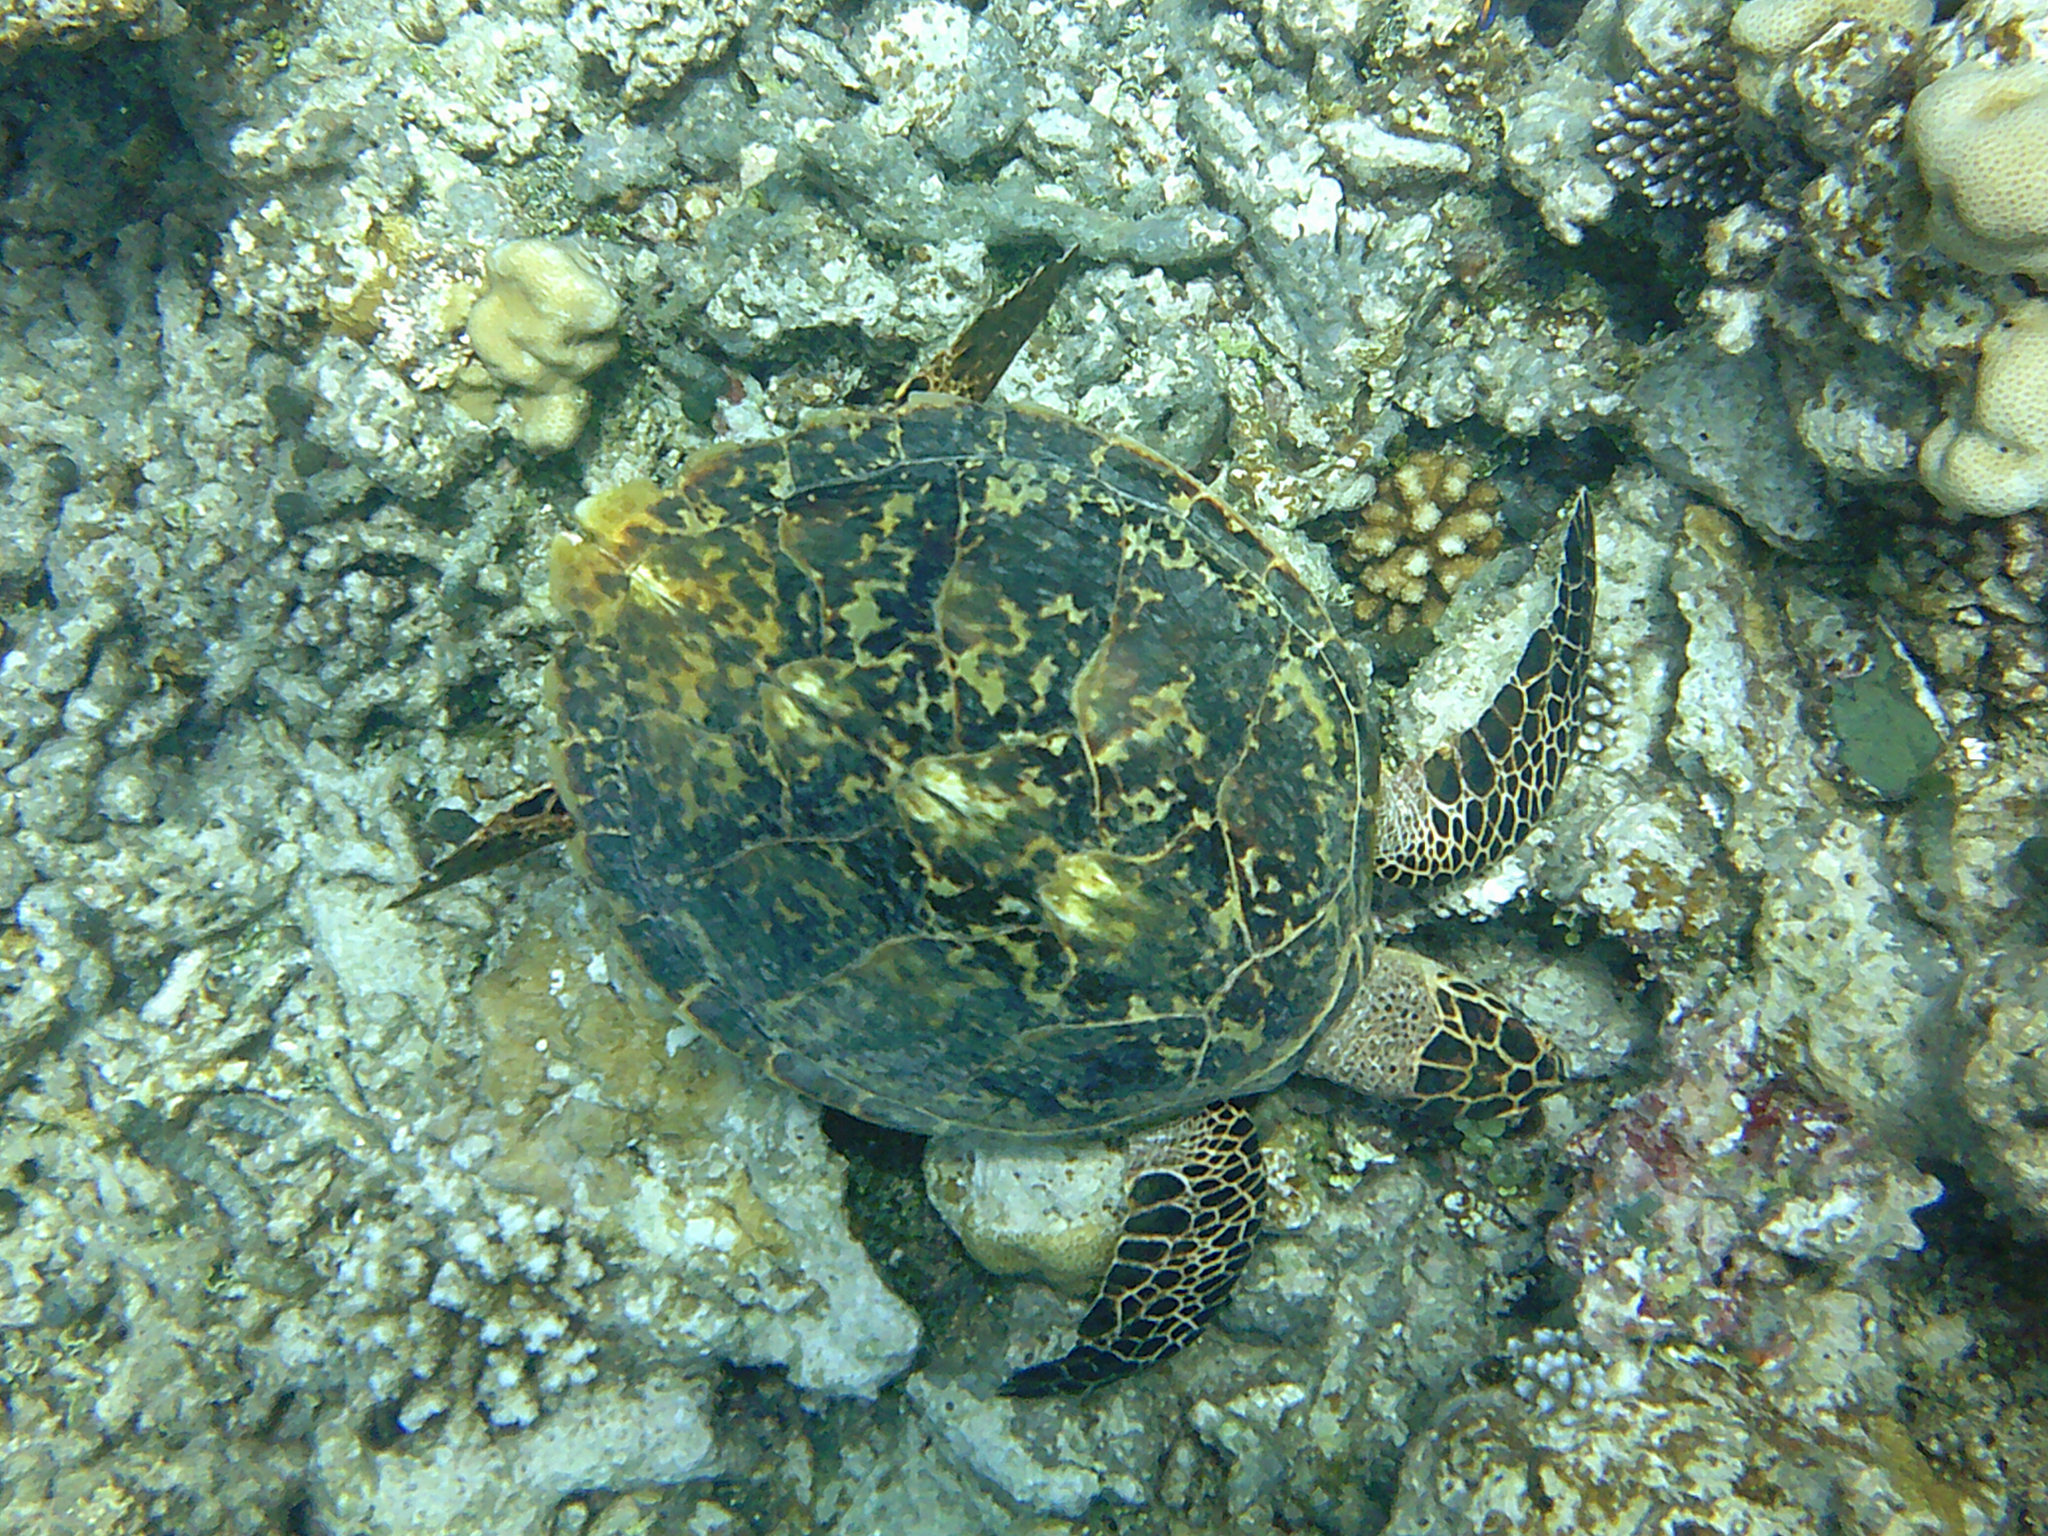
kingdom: Animalia
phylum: Chordata
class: Testudines
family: Cheloniidae
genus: Eretmochelys
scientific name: Eretmochelys imbricata
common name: Hawksbill turtle
